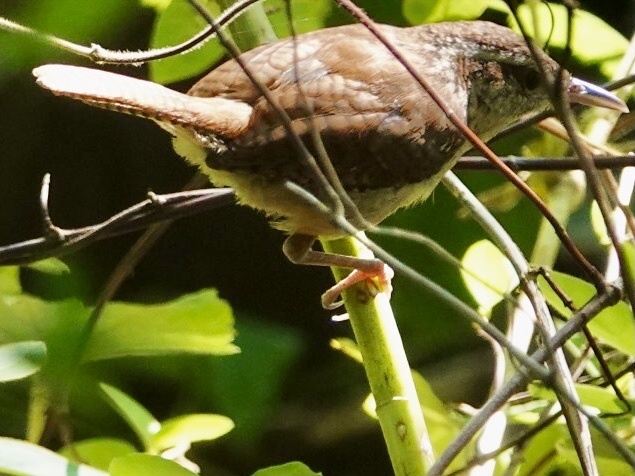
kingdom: Animalia
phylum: Chordata
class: Aves
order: Passeriformes
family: Troglodytidae
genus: Thryothorus
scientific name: Thryothorus ludovicianus
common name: Carolina wren
